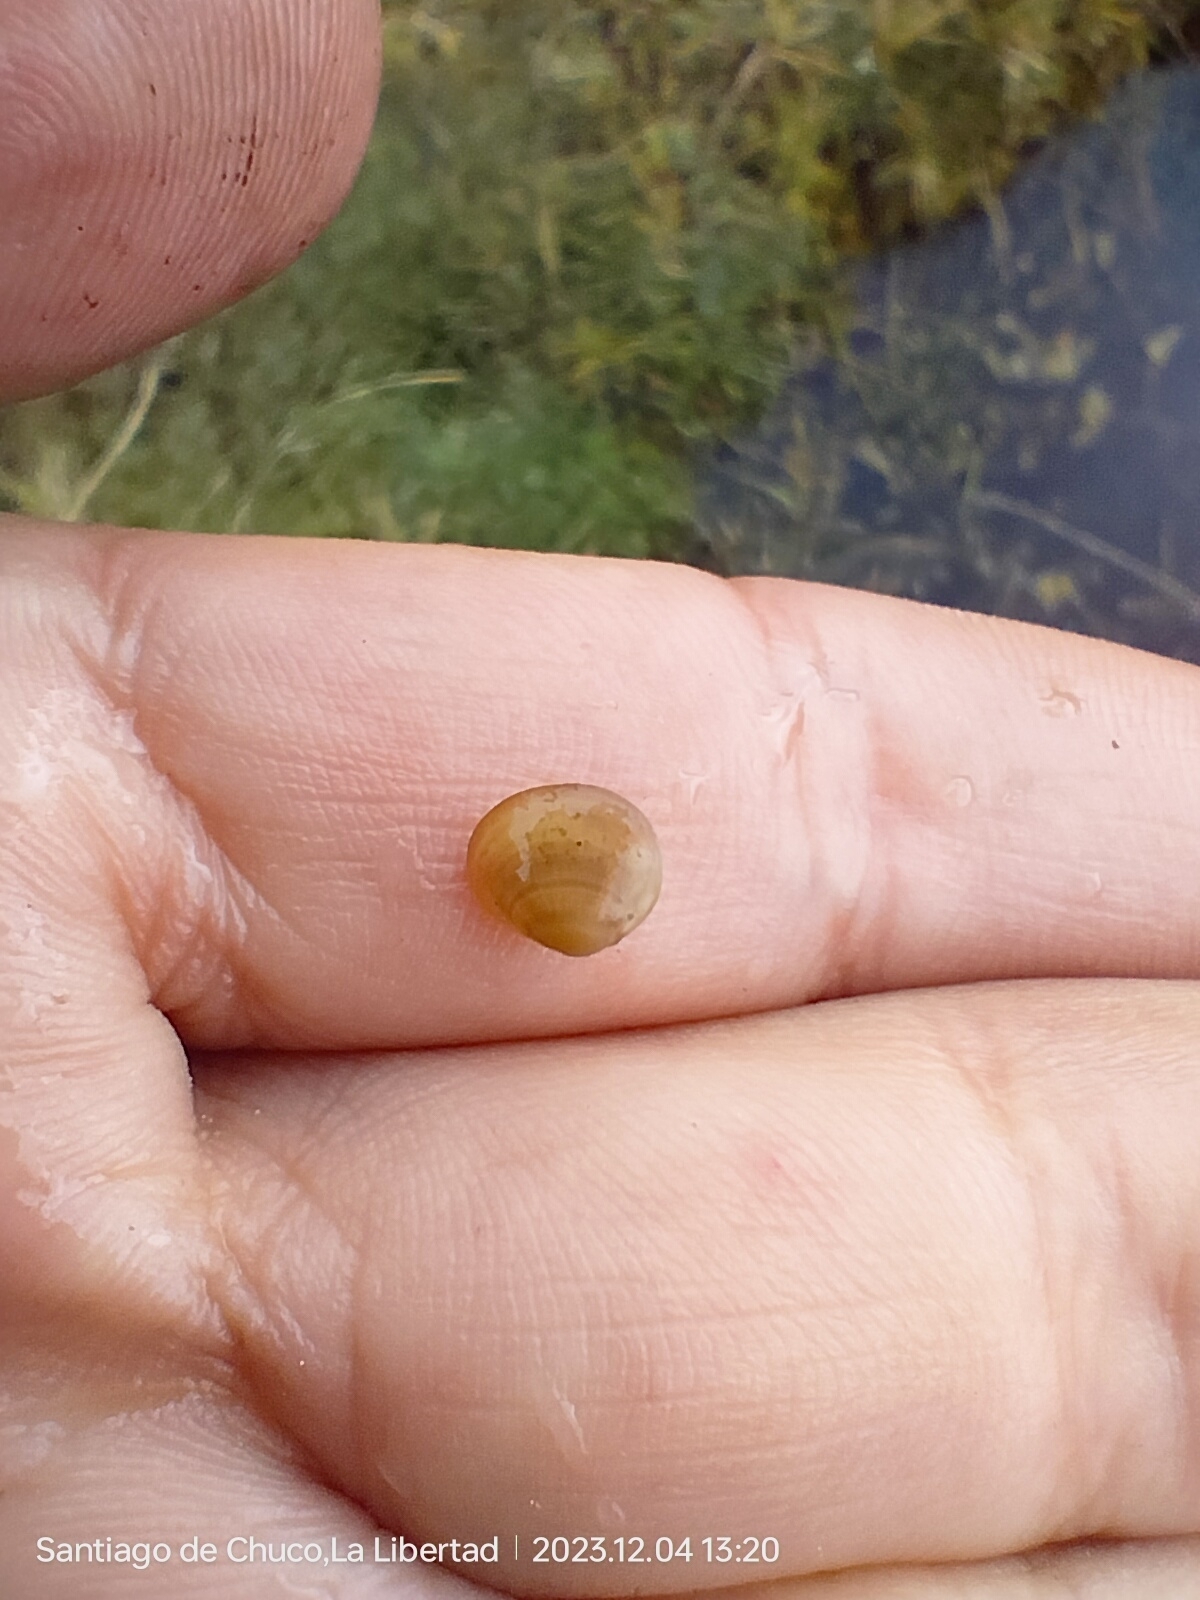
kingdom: Animalia
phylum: Mollusca
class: Bivalvia
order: Sphaeriida
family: Sphaeriidae
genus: Sphaerium
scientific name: Sphaerium lauricochae
